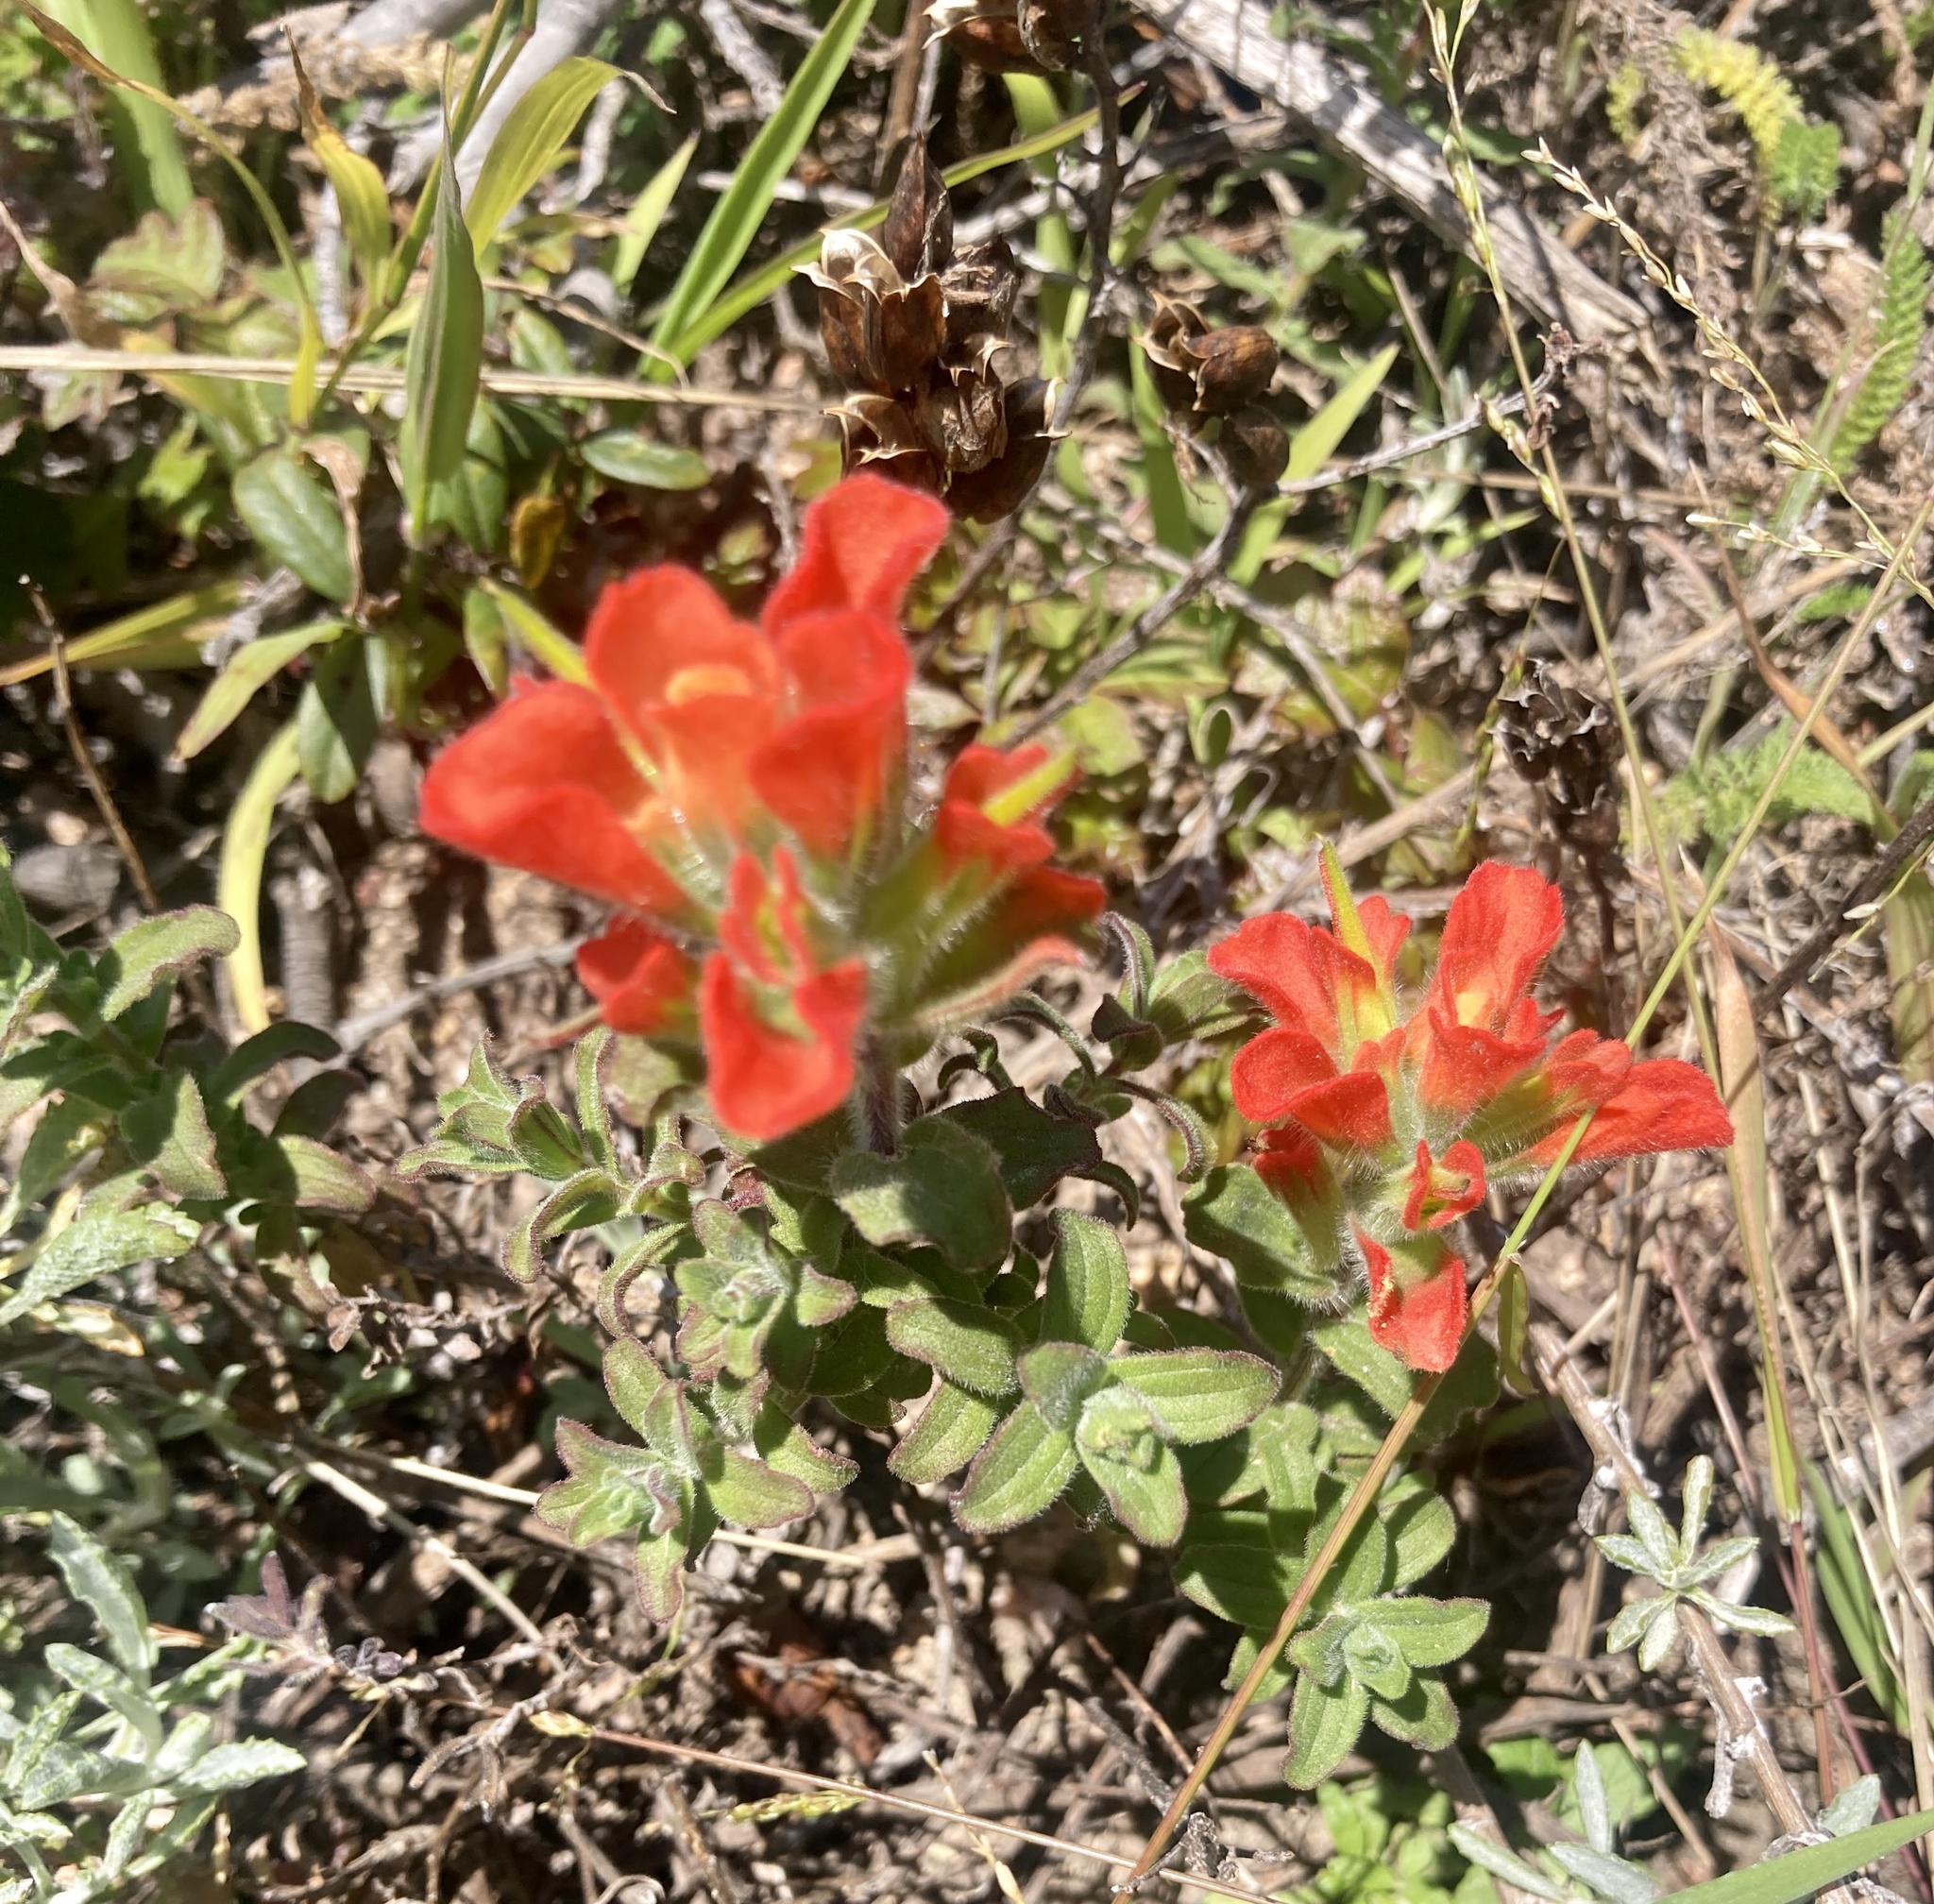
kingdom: Plantae
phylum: Tracheophyta
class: Magnoliopsida
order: Lamiales
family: Orobanchaceae
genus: Castilleja
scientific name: Castilleja latifolia
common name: Monterey indian paintbrush
